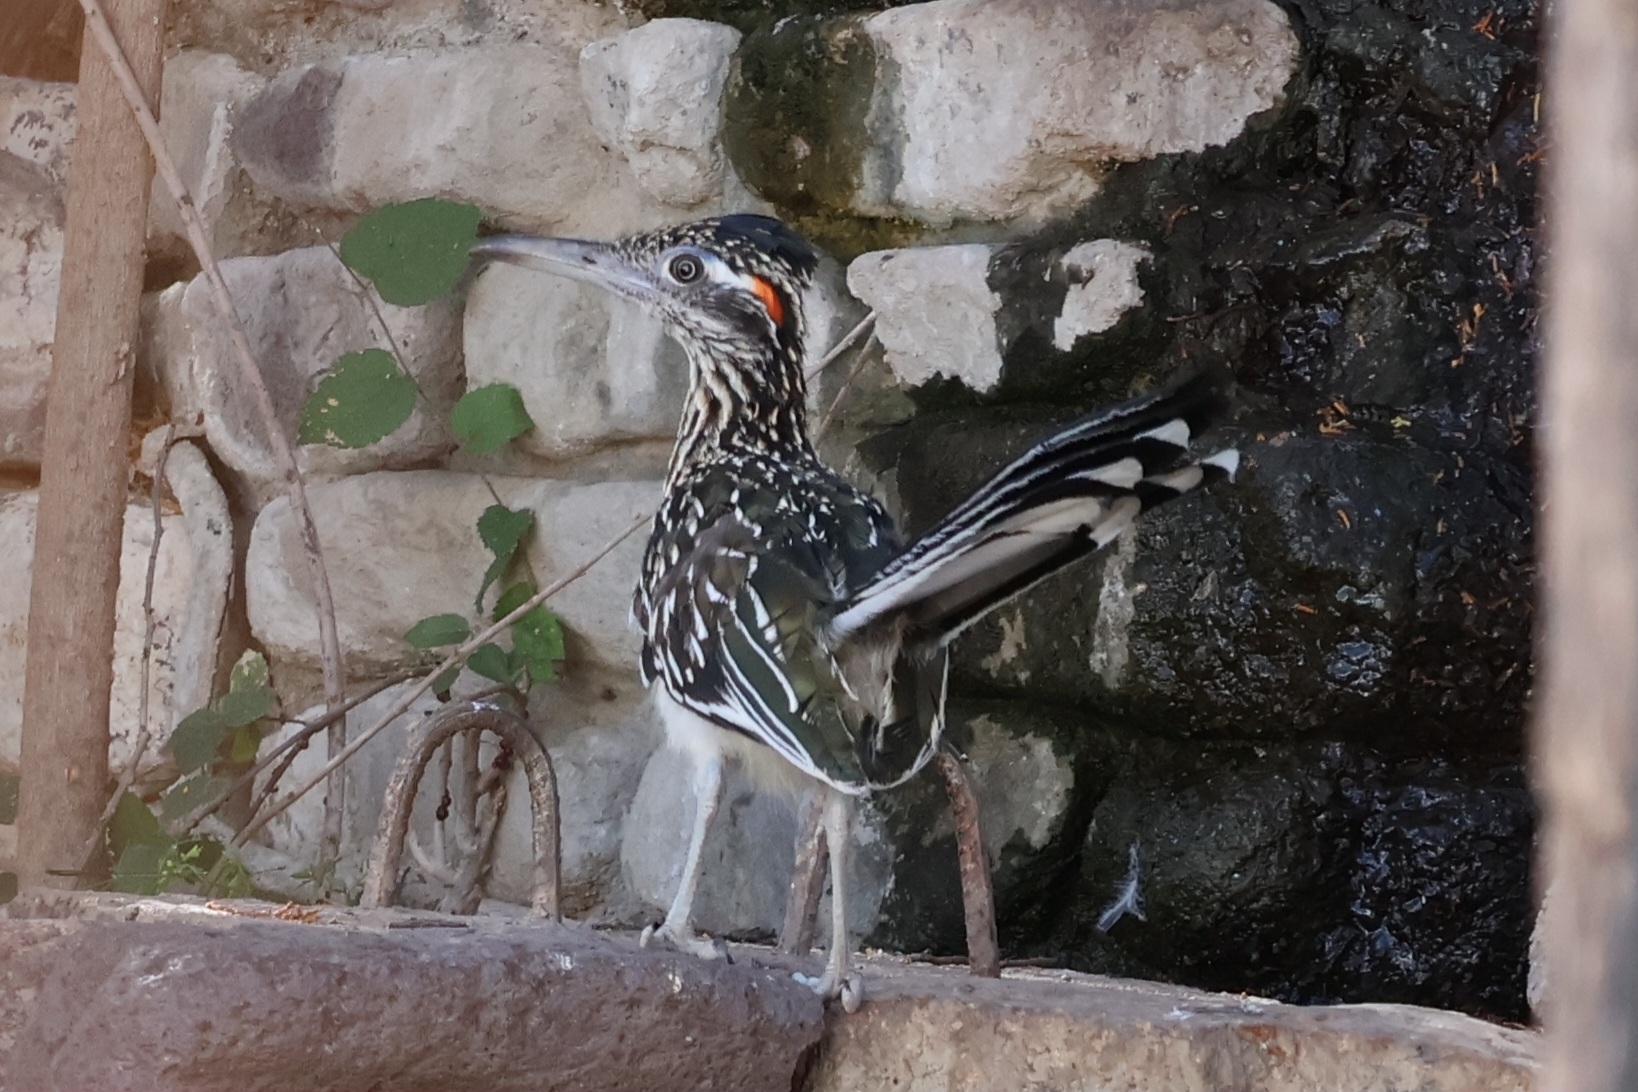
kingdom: Animalia
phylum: Chordata
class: Aves
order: Cuculiformes
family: Cuculidae
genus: Geococcyx
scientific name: Geococcyx californianus
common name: Greater roadrunner
